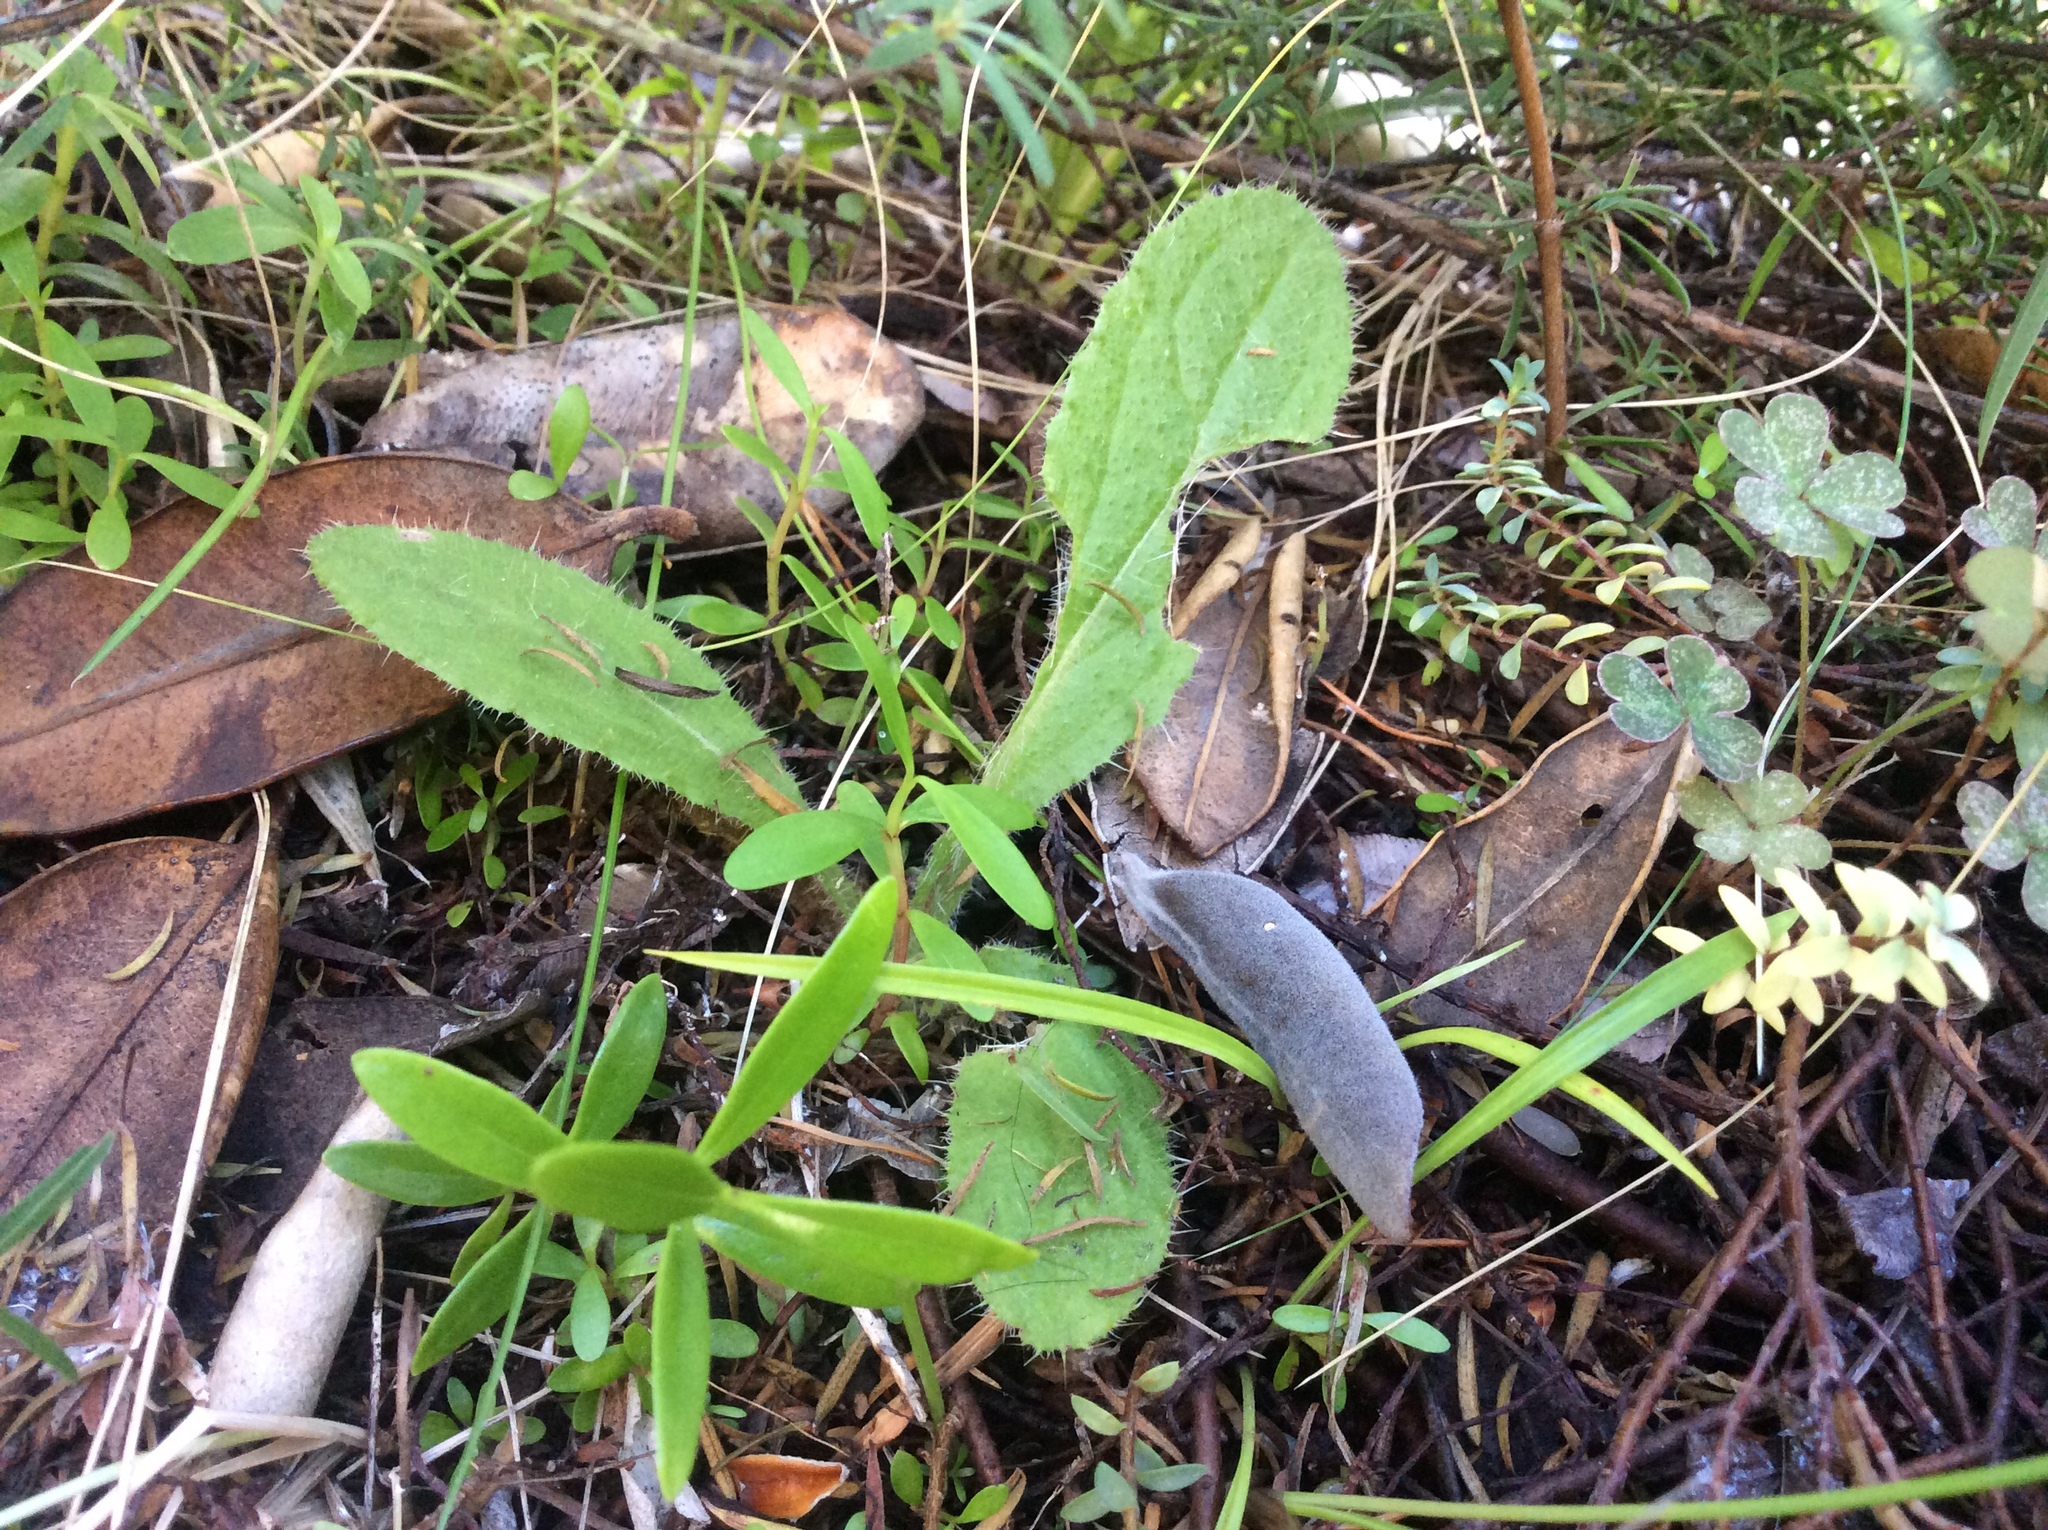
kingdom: Plantae
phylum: Tracheophyta
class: Magnoliopsida
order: Asterales
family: Asteraceae
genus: Cirsium
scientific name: Cirsium vulgare
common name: Bull thistle
